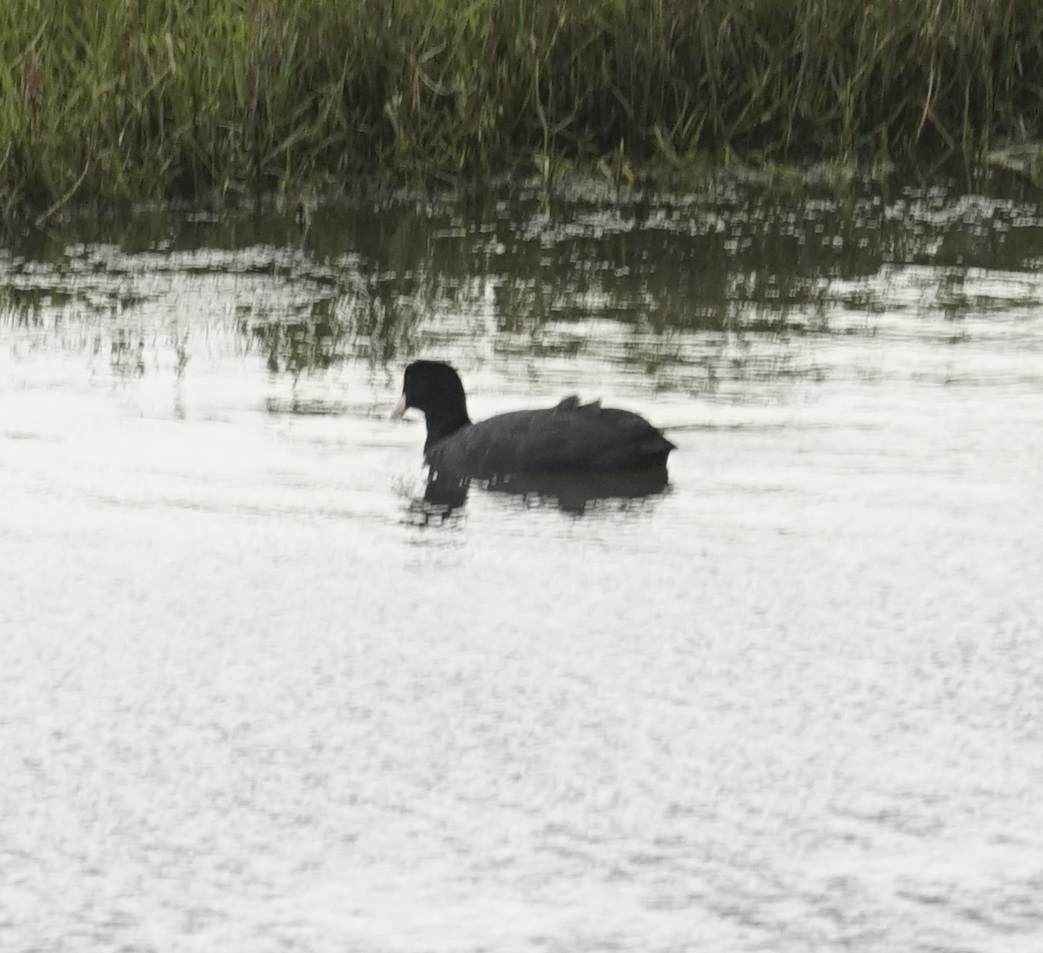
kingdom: Animalia
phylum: Chordata
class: Aves
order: Gruiformes
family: Rallidae
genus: Fulica
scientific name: Fulica atra
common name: Eurasian coot
